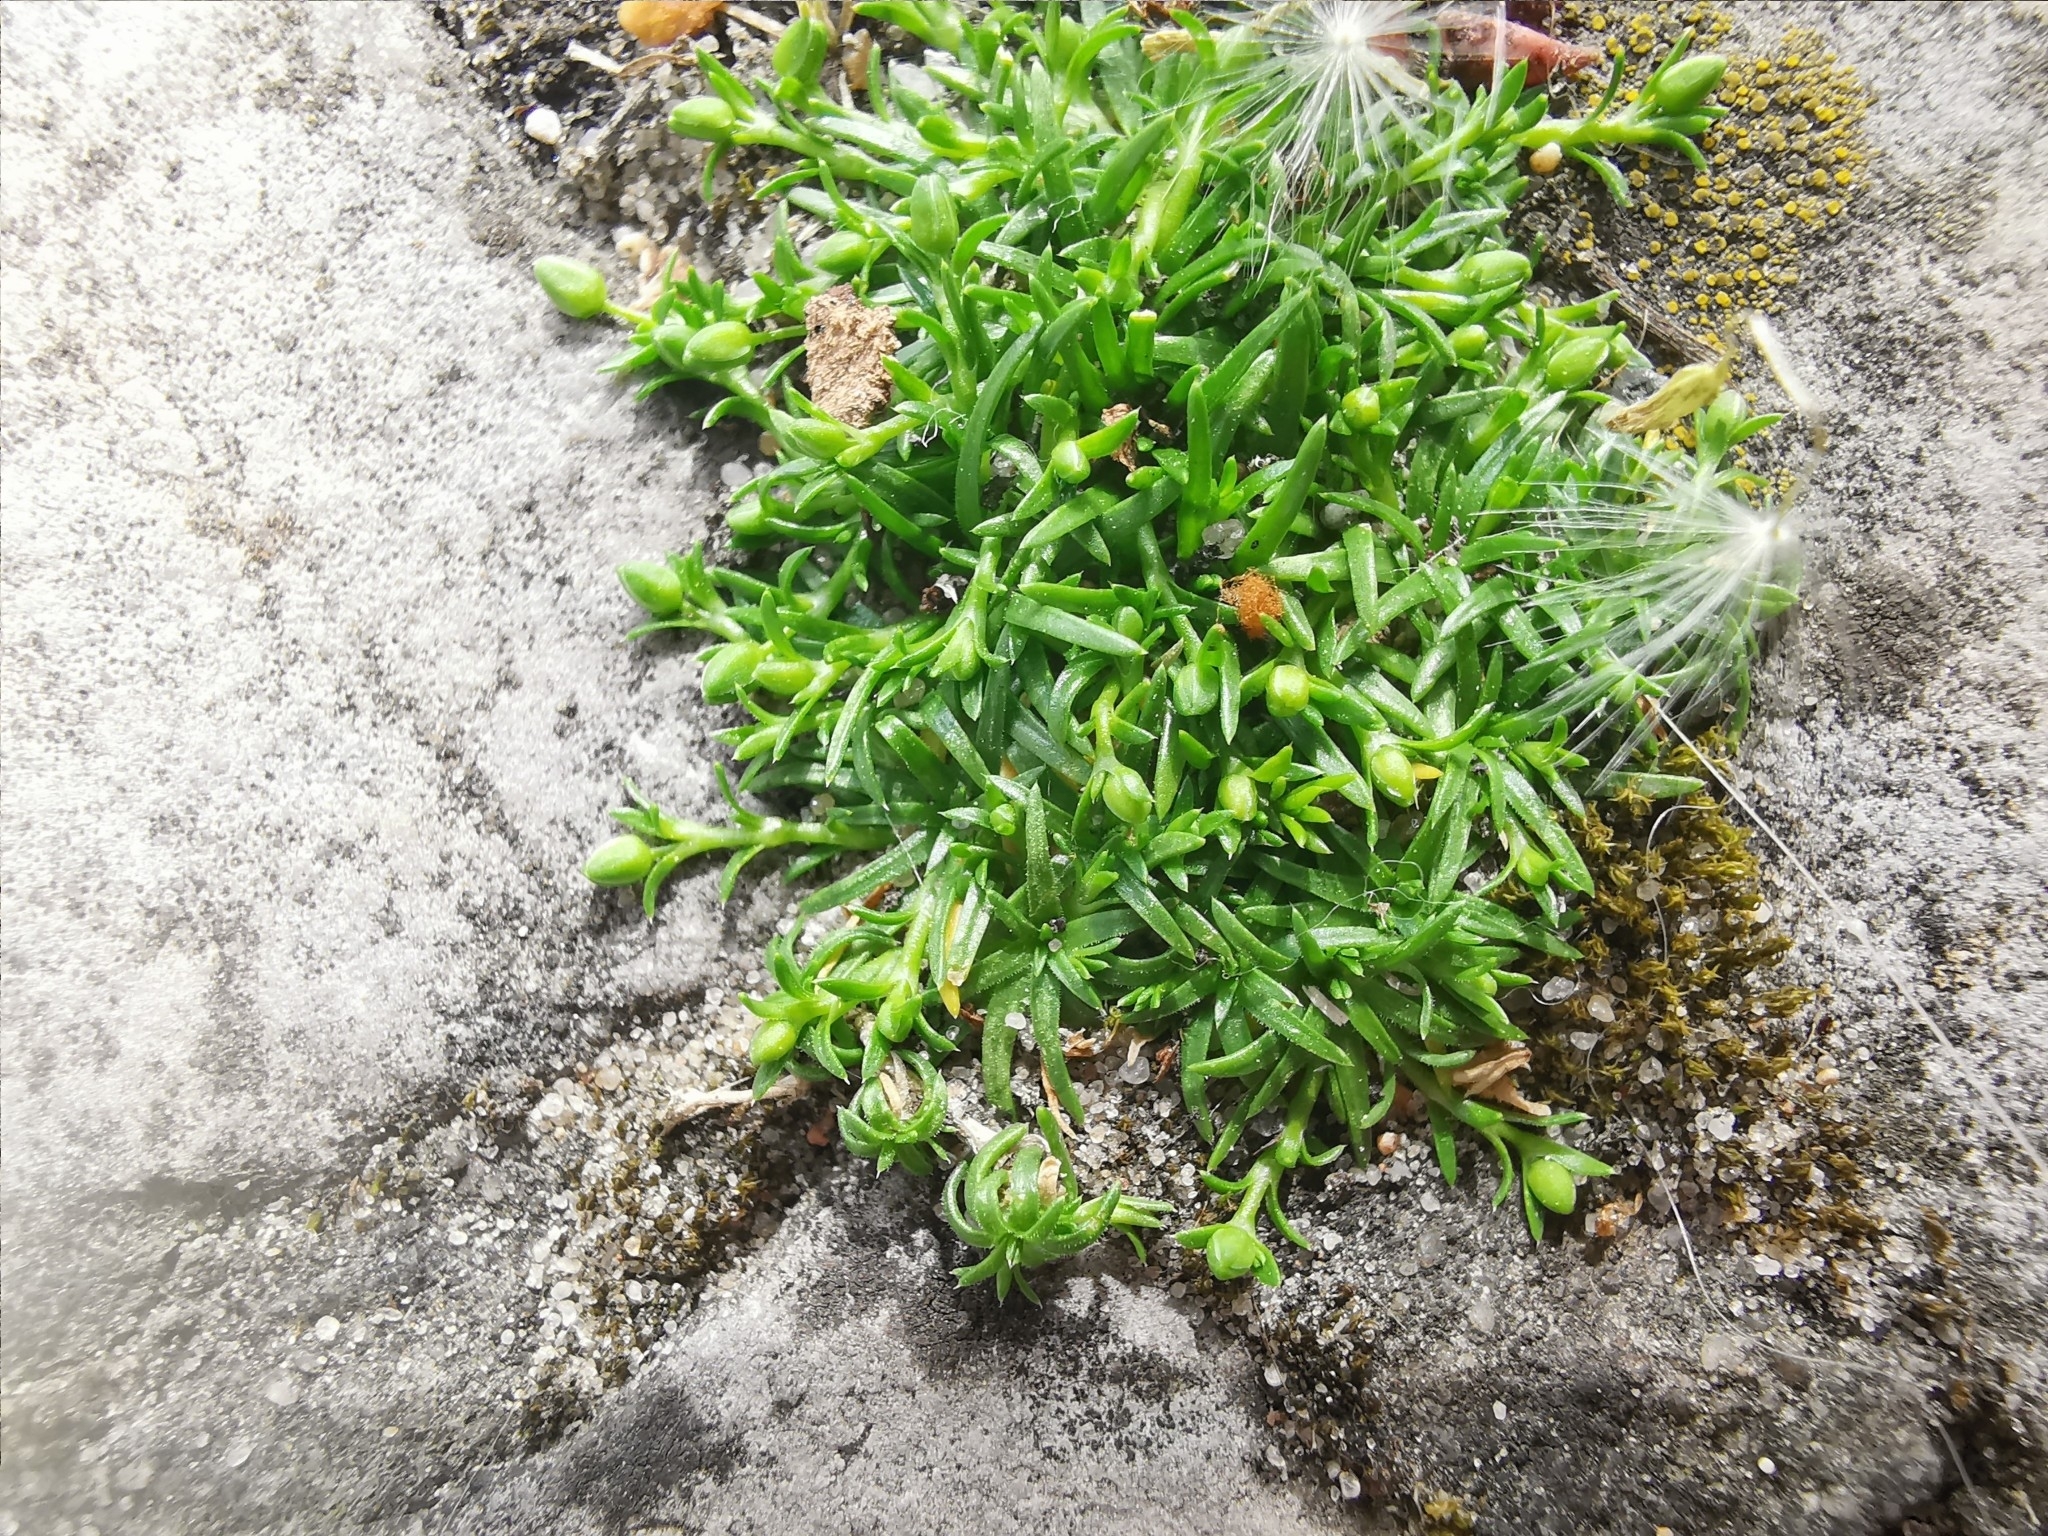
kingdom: Plantae
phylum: Tracheophyta
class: Magnoliopsida
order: Caryophyllales
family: Caryophyllaceae
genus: Sagina
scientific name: Sagina procumbens
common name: Procumbent pearlwort
